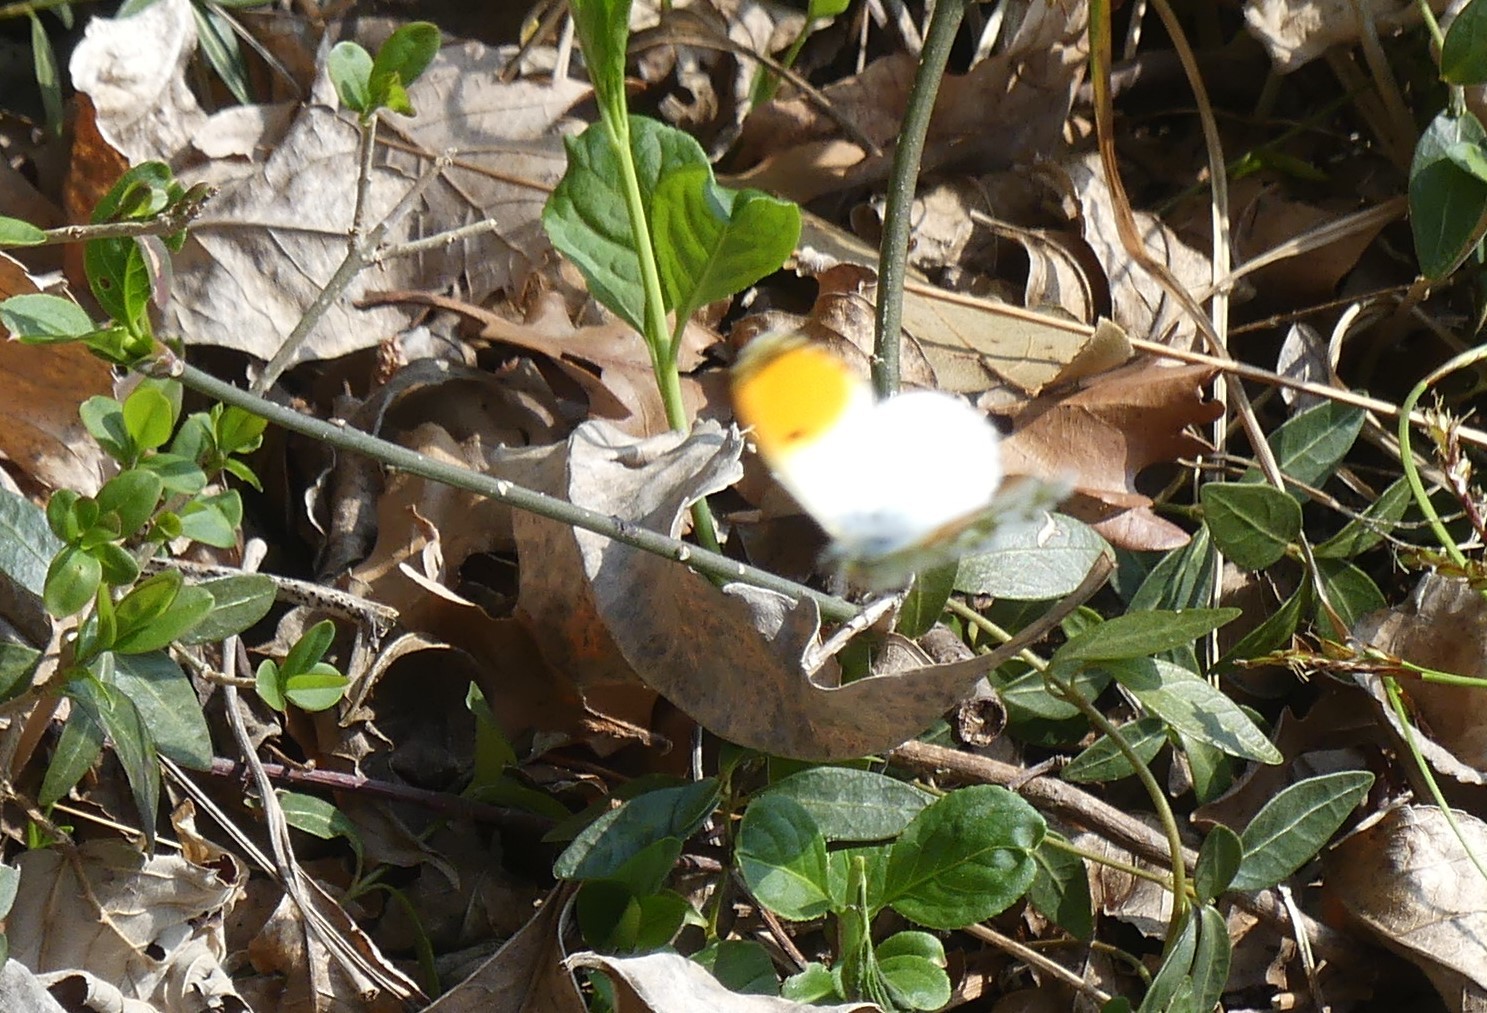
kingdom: Animalia
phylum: Arthropoda
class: Insecta
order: Lepidoptera
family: Pieridae
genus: Anthocharis
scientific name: Anthocharis cardamines
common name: Orange-tip
